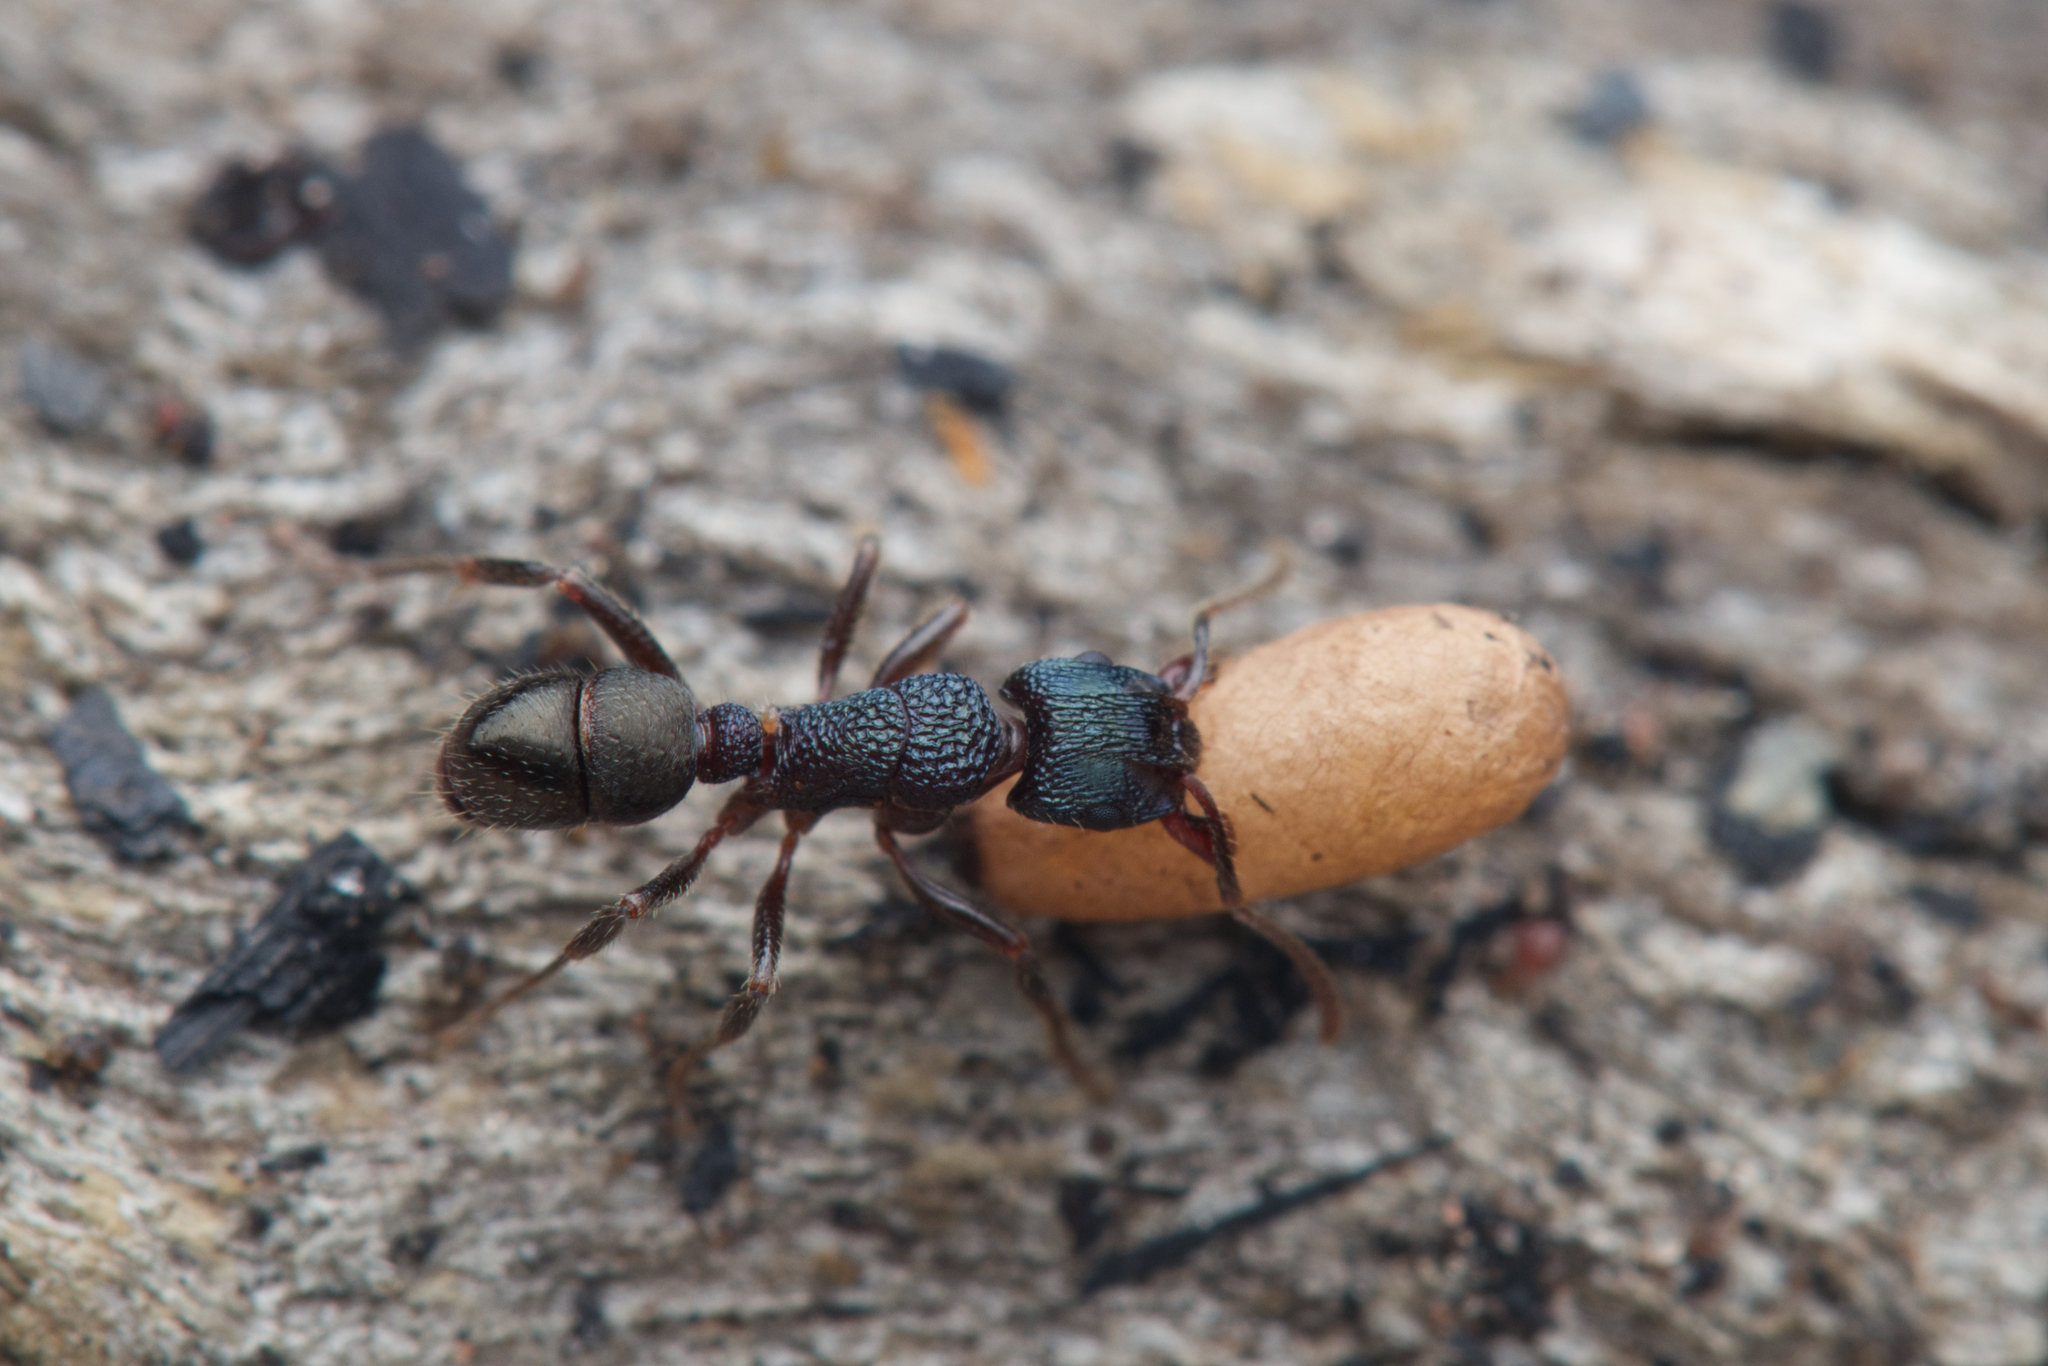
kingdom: Animalia
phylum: Arthropoda
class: Insecta
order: Hymenoptera
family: Formicidae
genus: Rhytidoponera
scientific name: Rhytidoponera victoriae
